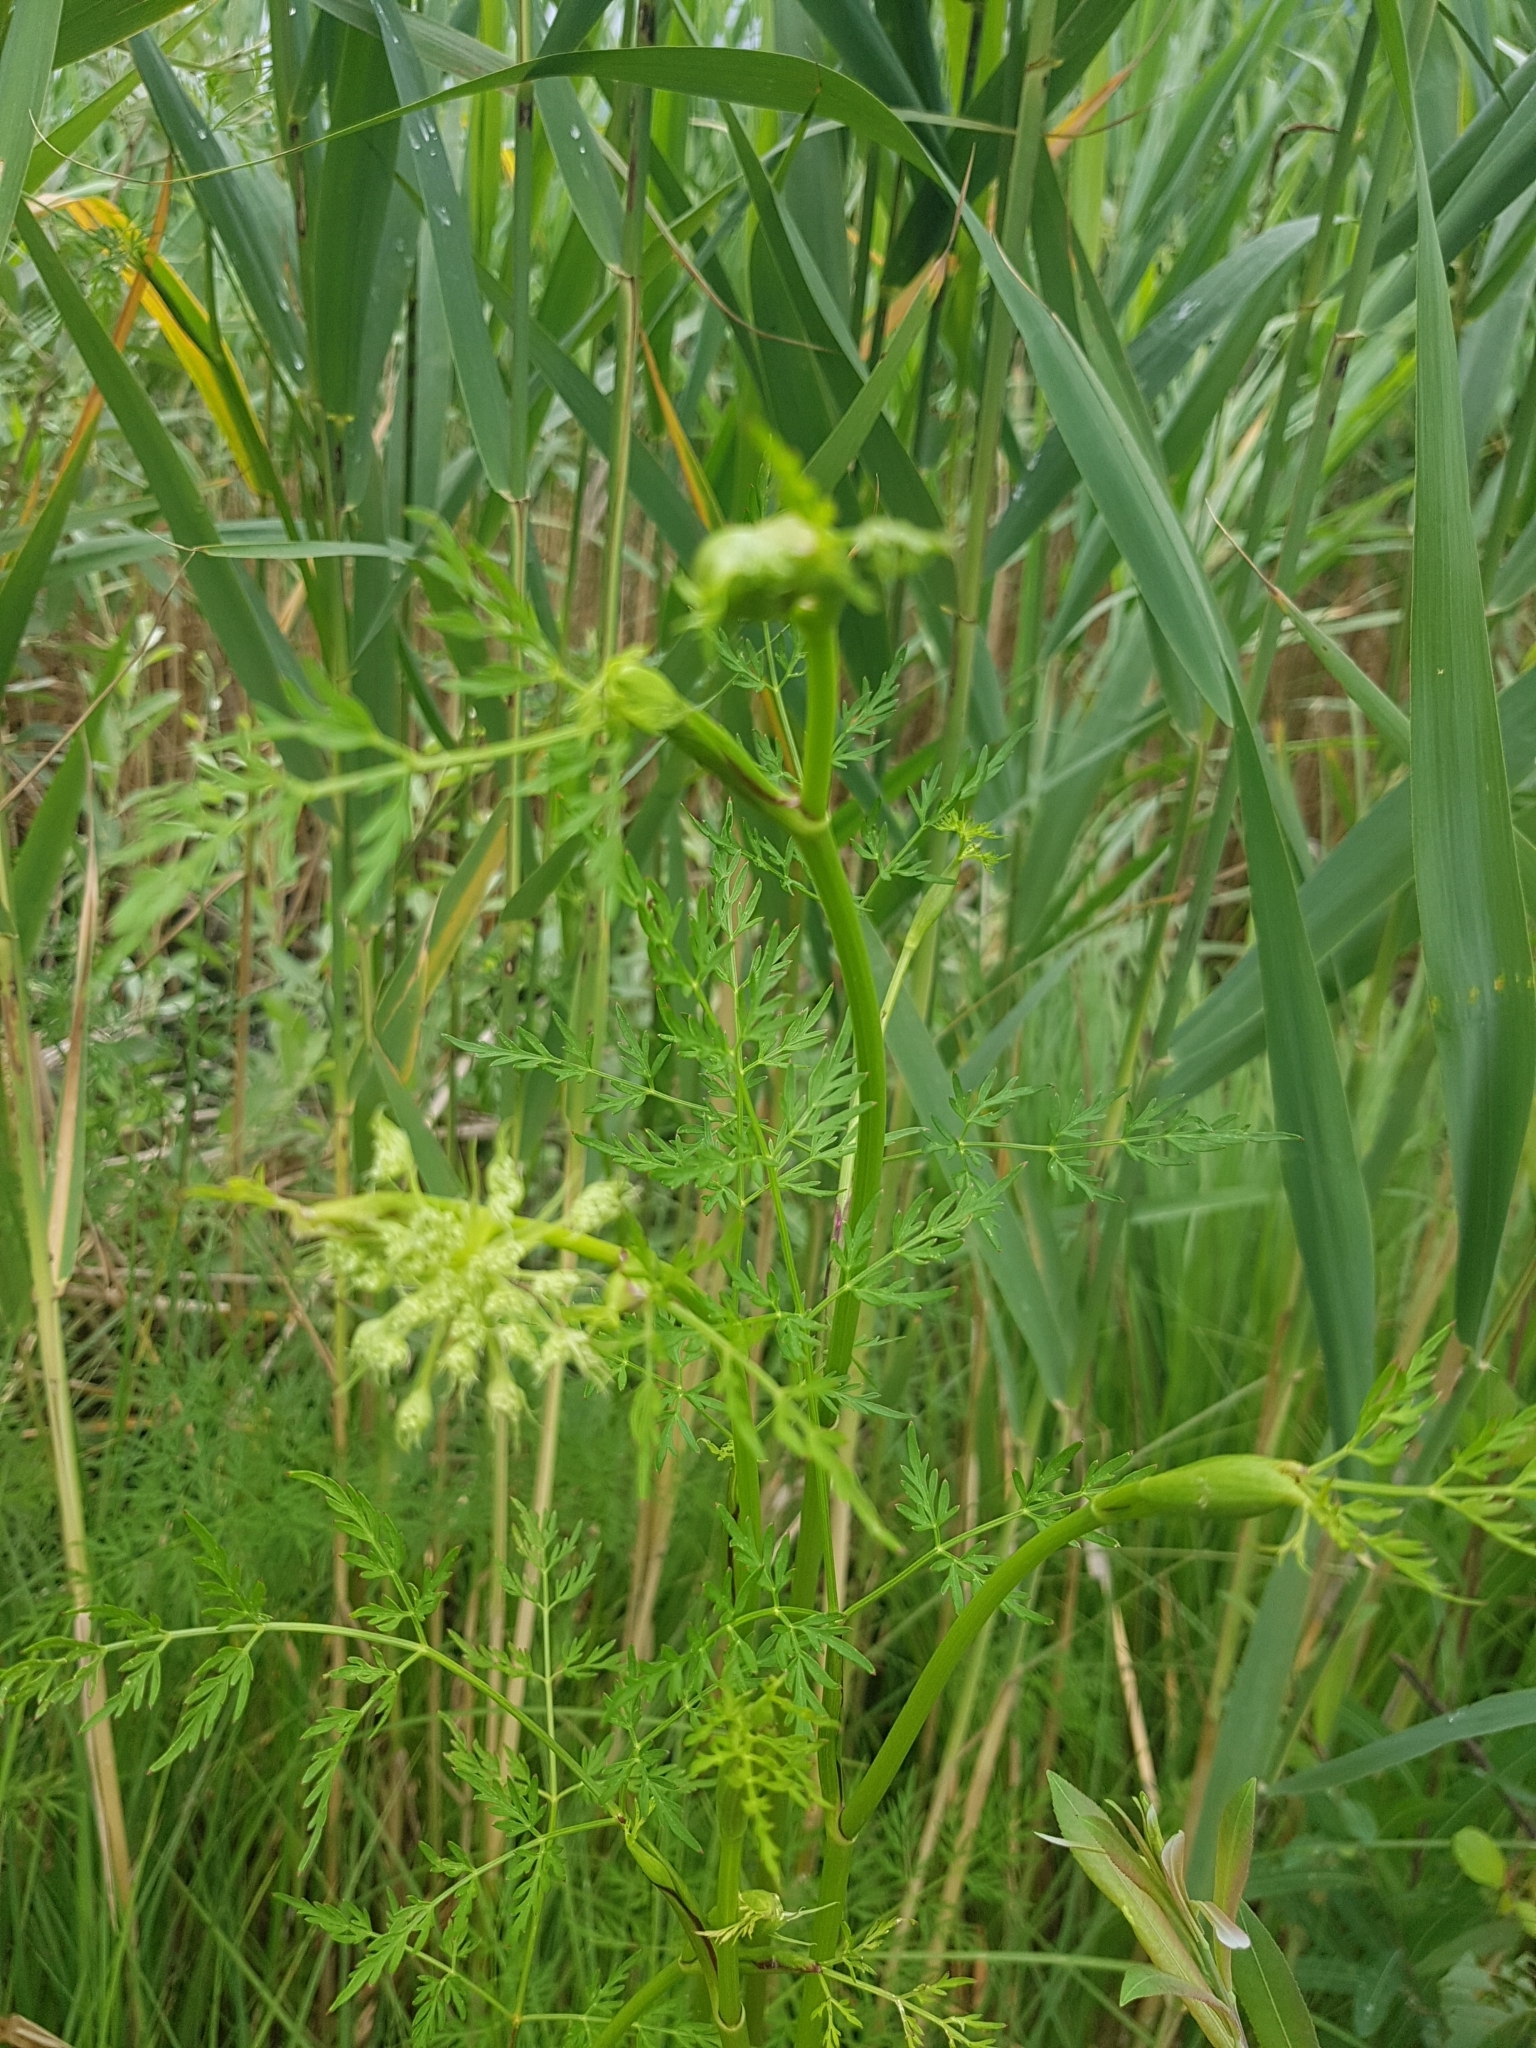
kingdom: Plantae
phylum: Tracheophyta
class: Magnoliopsida
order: Apiales
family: Apiaceae
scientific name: Apiaceae
